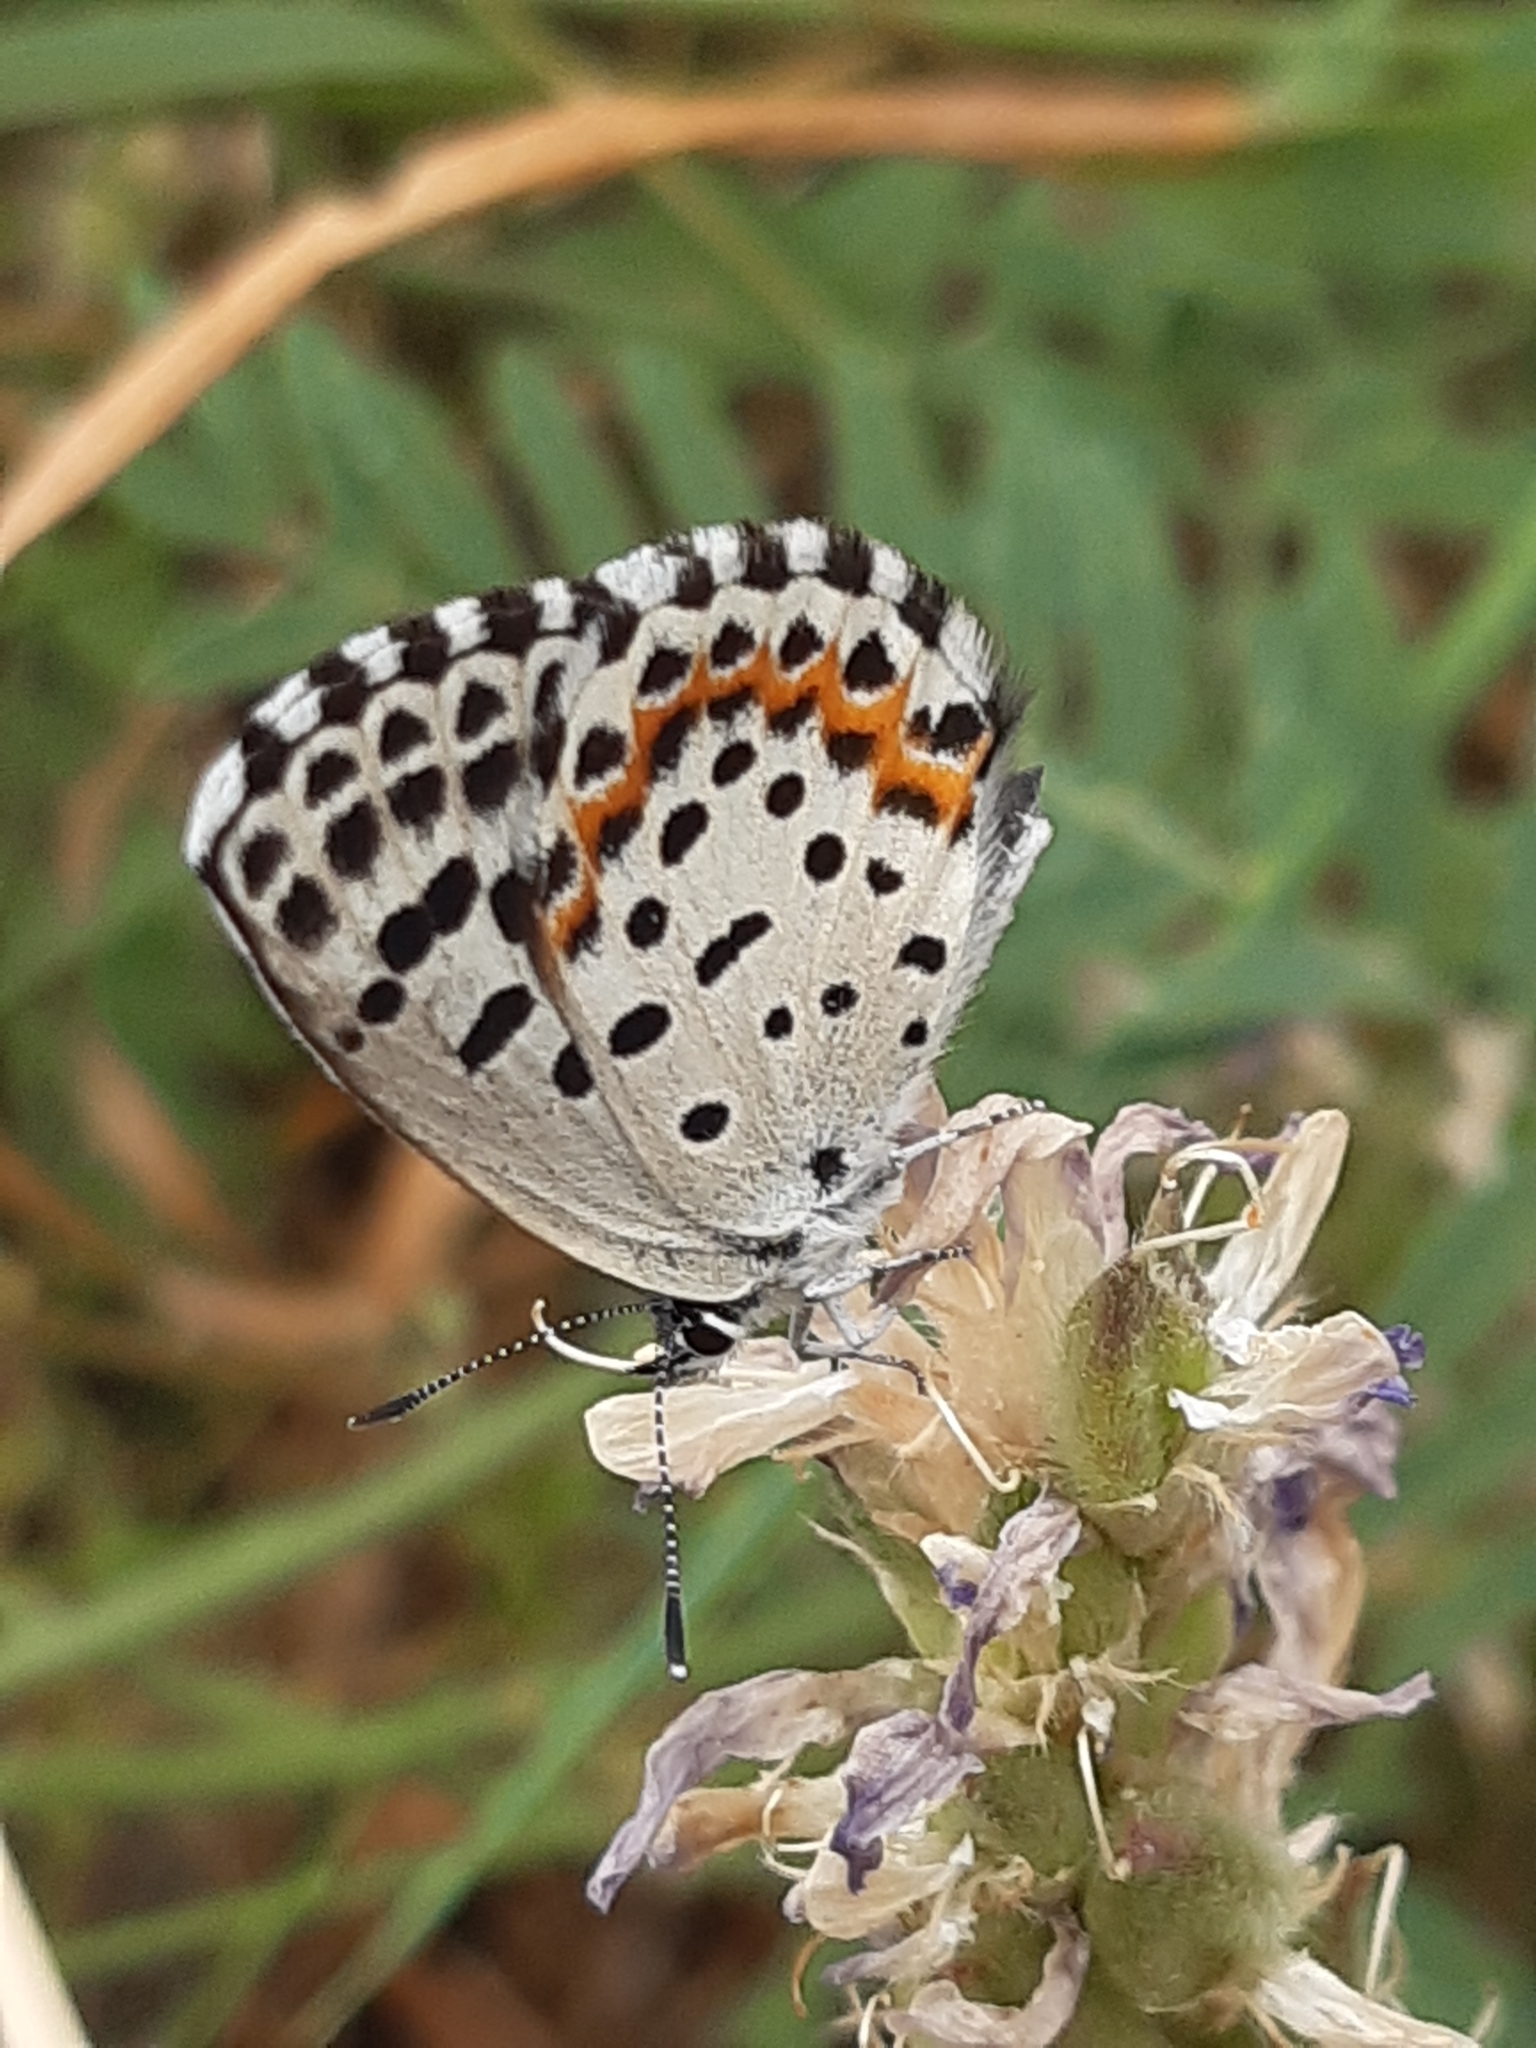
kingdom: Animalia
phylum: Arthropoda
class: Insecta
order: Lepidoptera
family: Lycaenidae
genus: Scolitantides
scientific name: Scolitantides orion
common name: Chequered blue
